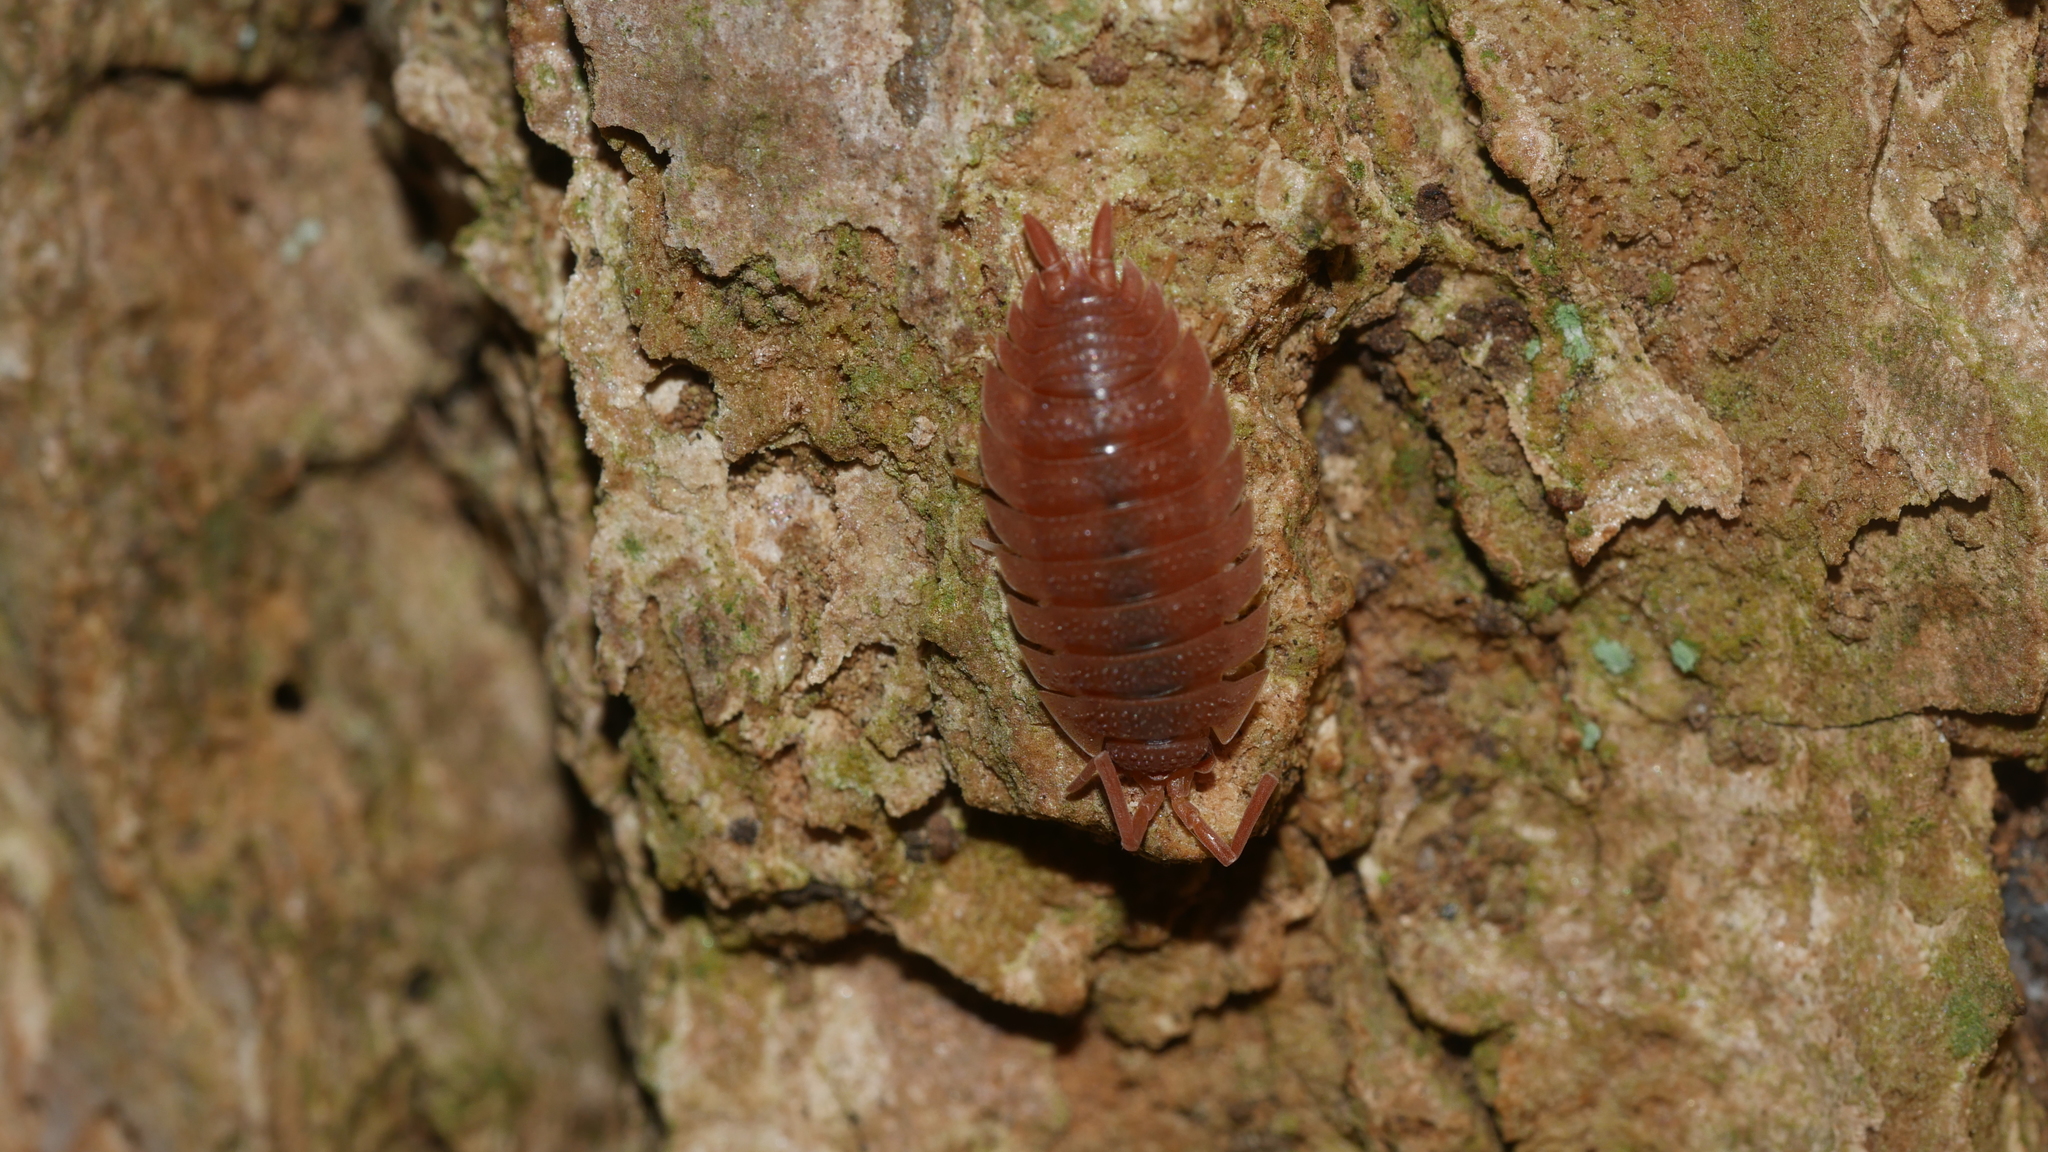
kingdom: Animalia
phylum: Arthropoda
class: Malacostraca
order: Isopoda
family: Porcellionidae
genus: Porcellio
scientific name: Porcellio scaber
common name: Common rough woodlouse
